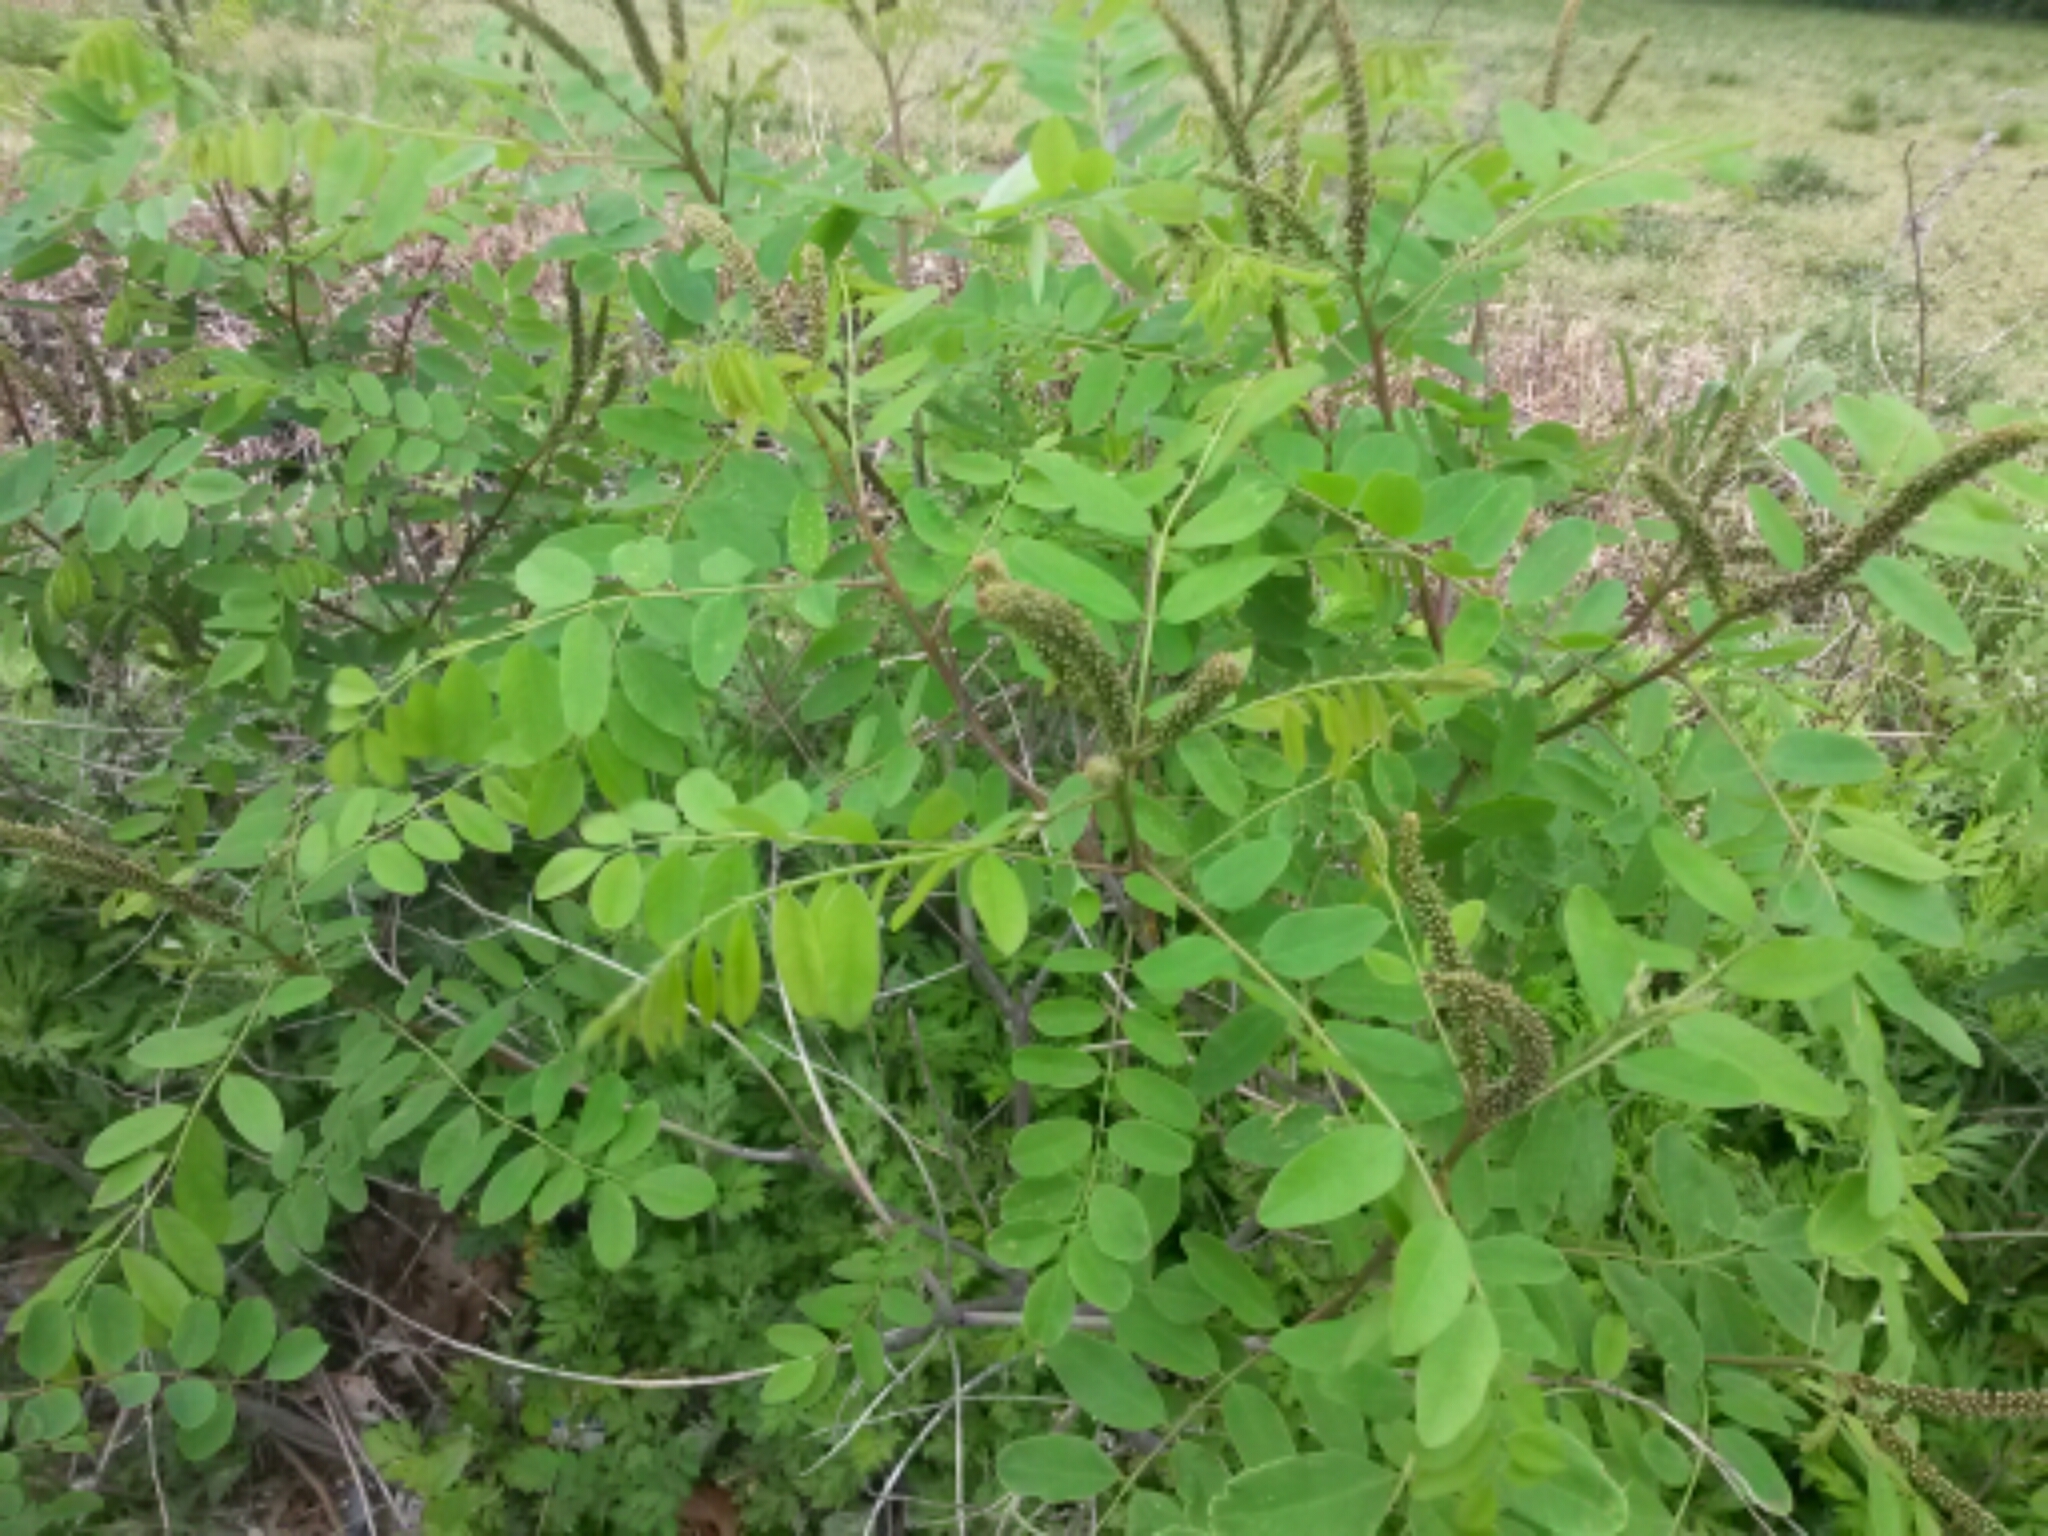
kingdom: Plantae
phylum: Tracheophyta
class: Magnoliopsida
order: Fabales
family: Fabaceae
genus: Amorpha
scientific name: Amorpha fruticosa
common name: False indigo
